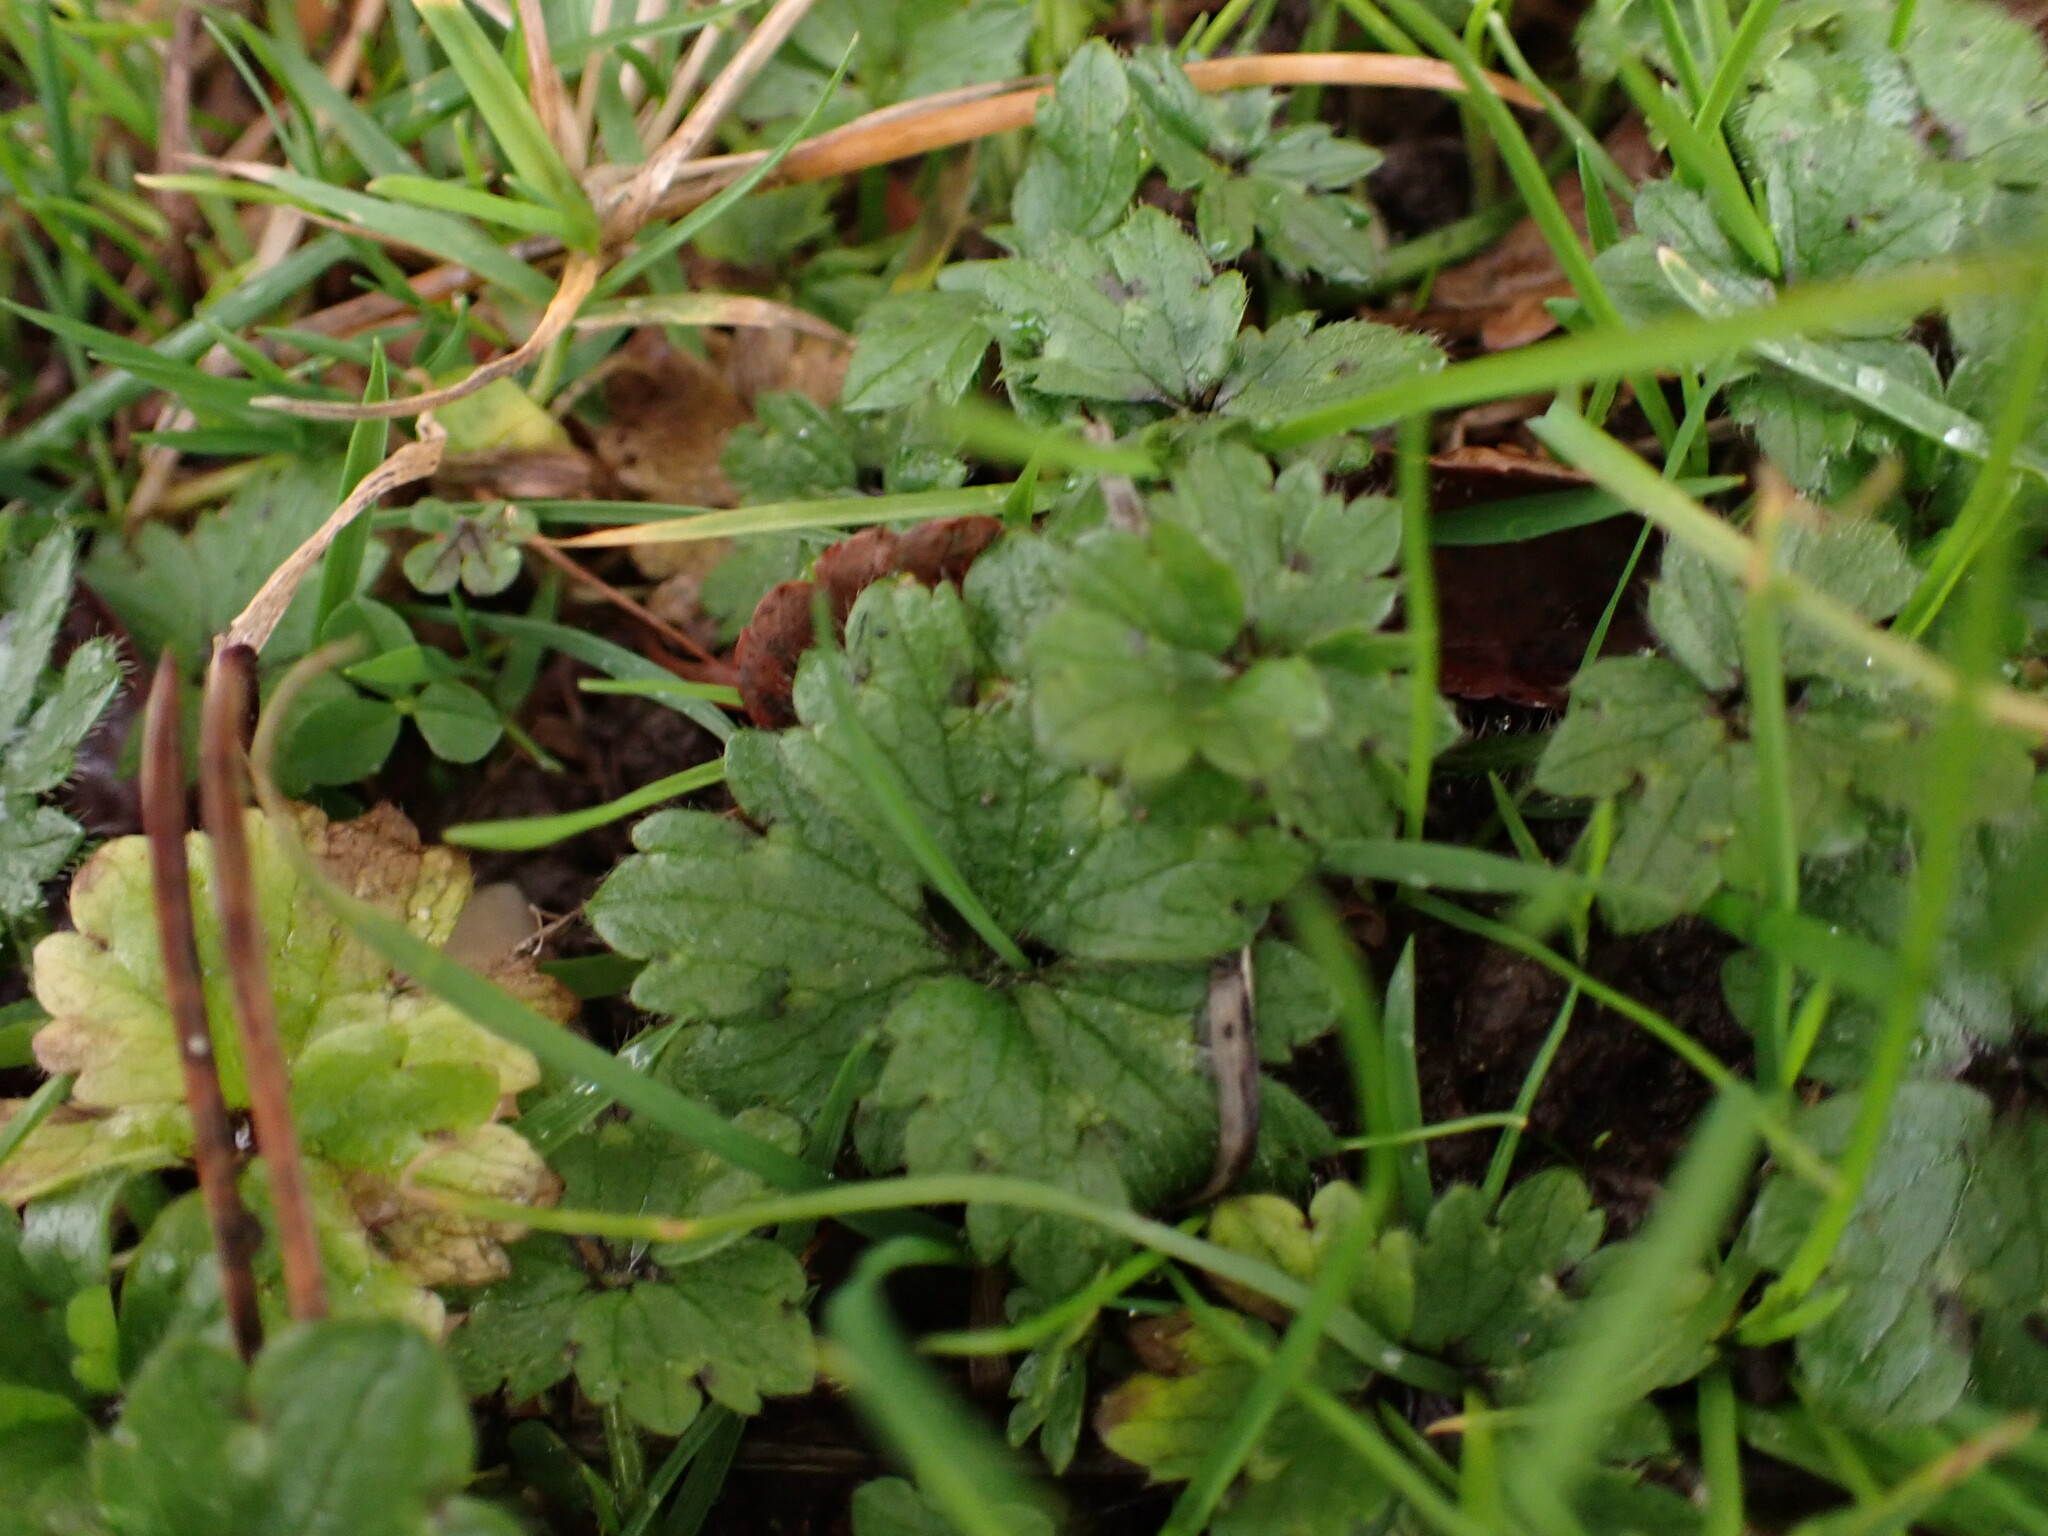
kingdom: Plantae
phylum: Tracheophyta
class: Magnoliopsida
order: Ranunculales
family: Ranunculaceae
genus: Ranunculus
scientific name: Ranunculus repens
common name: Creeping buttercup
